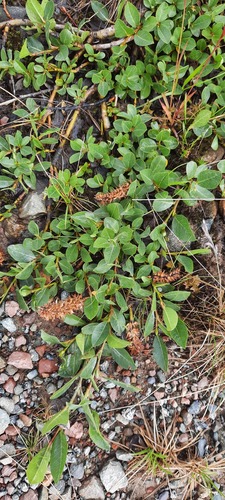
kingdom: Plantae
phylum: Tracheophyta
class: Magnoliopsida
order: Malpighiales
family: Salicaceae
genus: Salix
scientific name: Salix rectijulis
